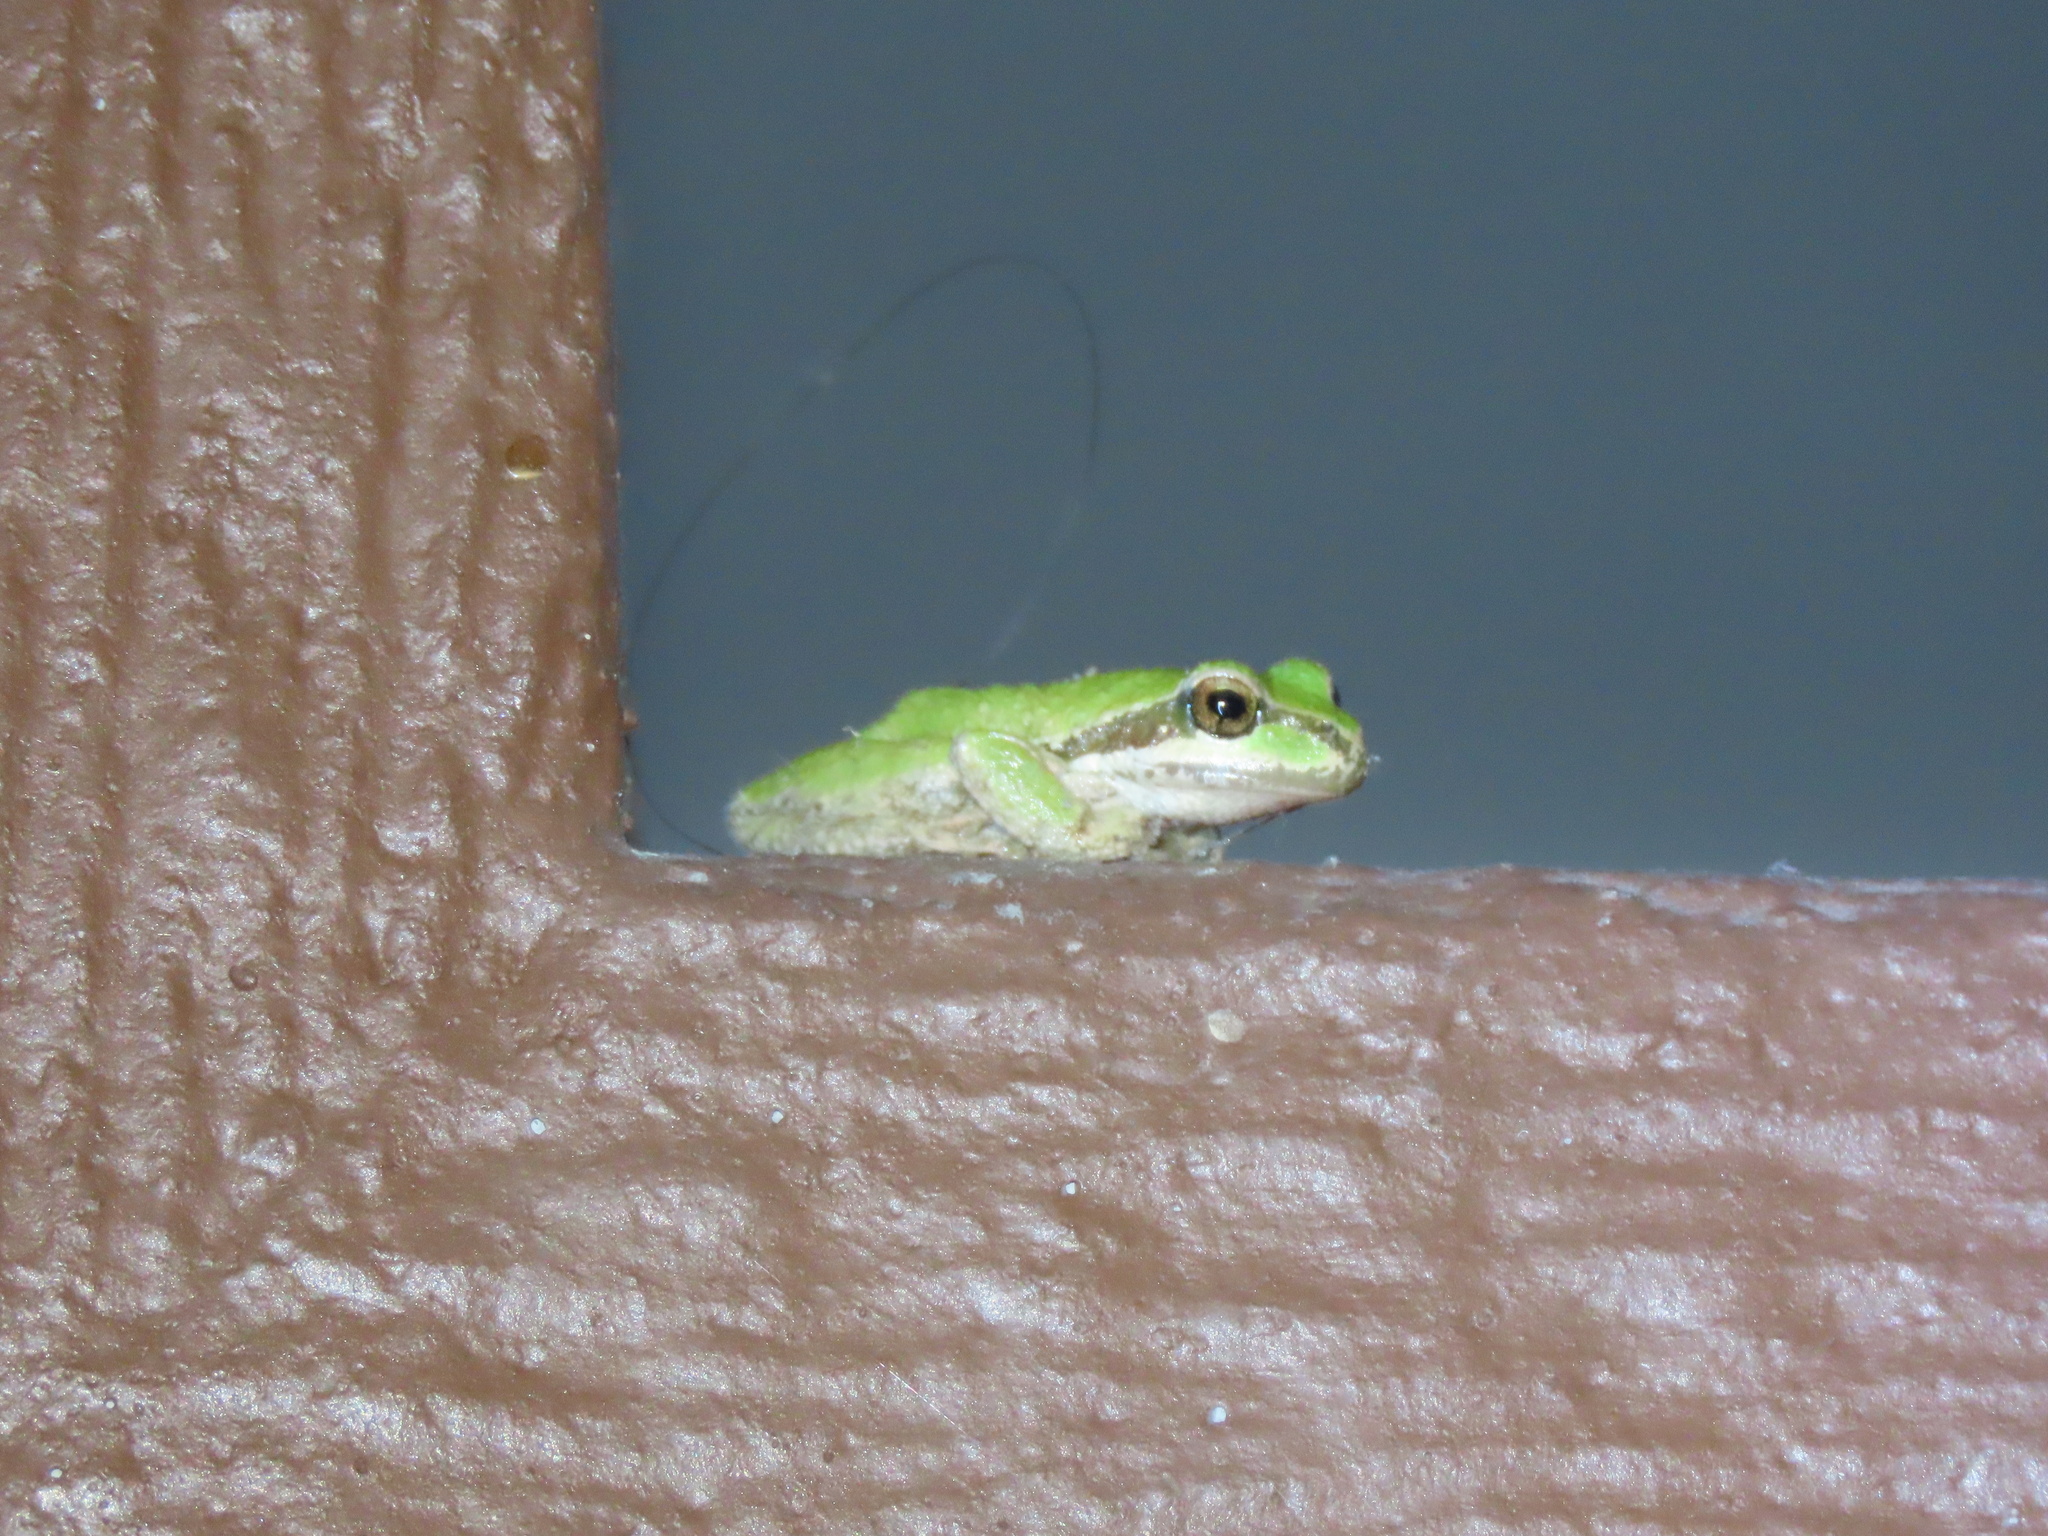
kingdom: Animalia
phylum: Chordata
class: Amphibia
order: Anura
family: Hylidae
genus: Pseudacris
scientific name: Pseudacris regilla
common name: Pacific chorus frog
